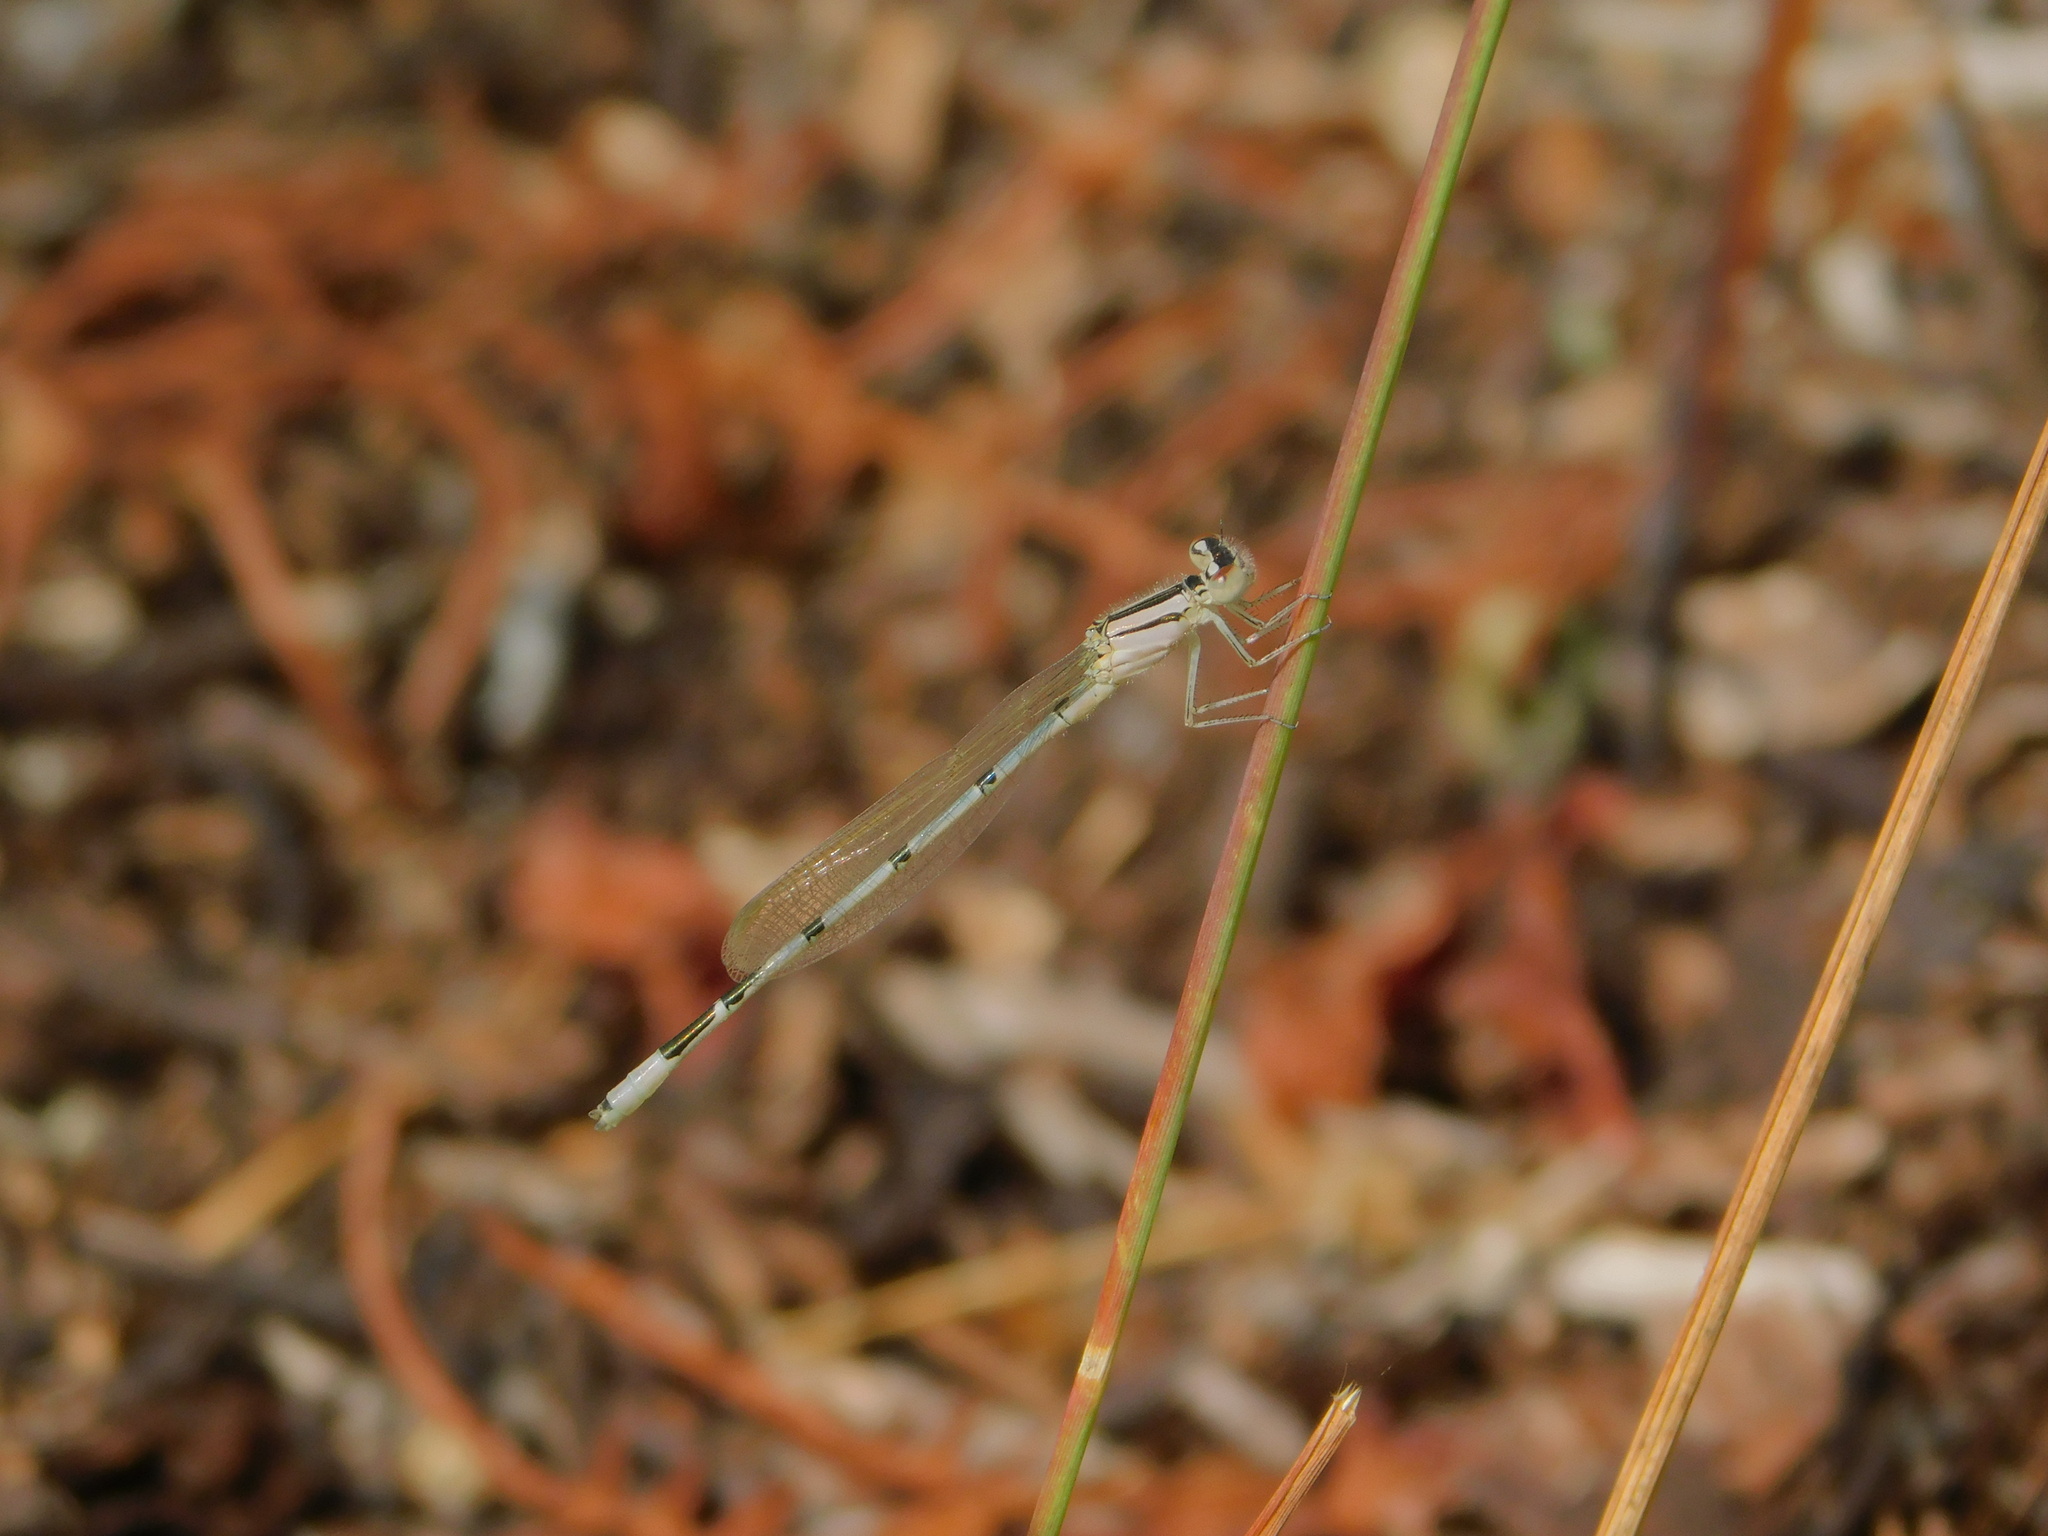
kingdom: Animalia
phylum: Arthropoda
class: Insecta
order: Odonata
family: Coenagrionidae
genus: Enallagma
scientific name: Enallagma civile
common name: Damselfly
